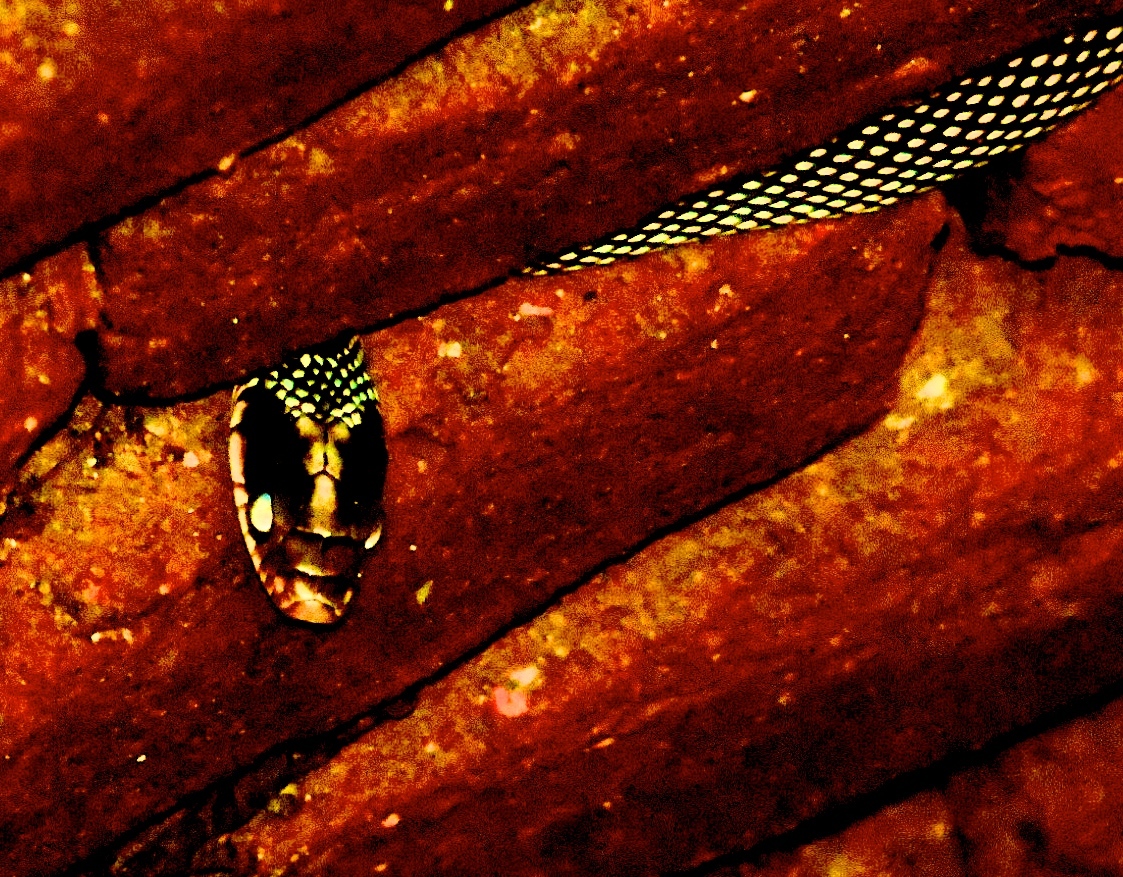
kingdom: Animalia
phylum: Chordata
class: Squamata
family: Colubridae
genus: Drymobius
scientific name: Drymobius margaritiferus
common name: Central american speckled racer
